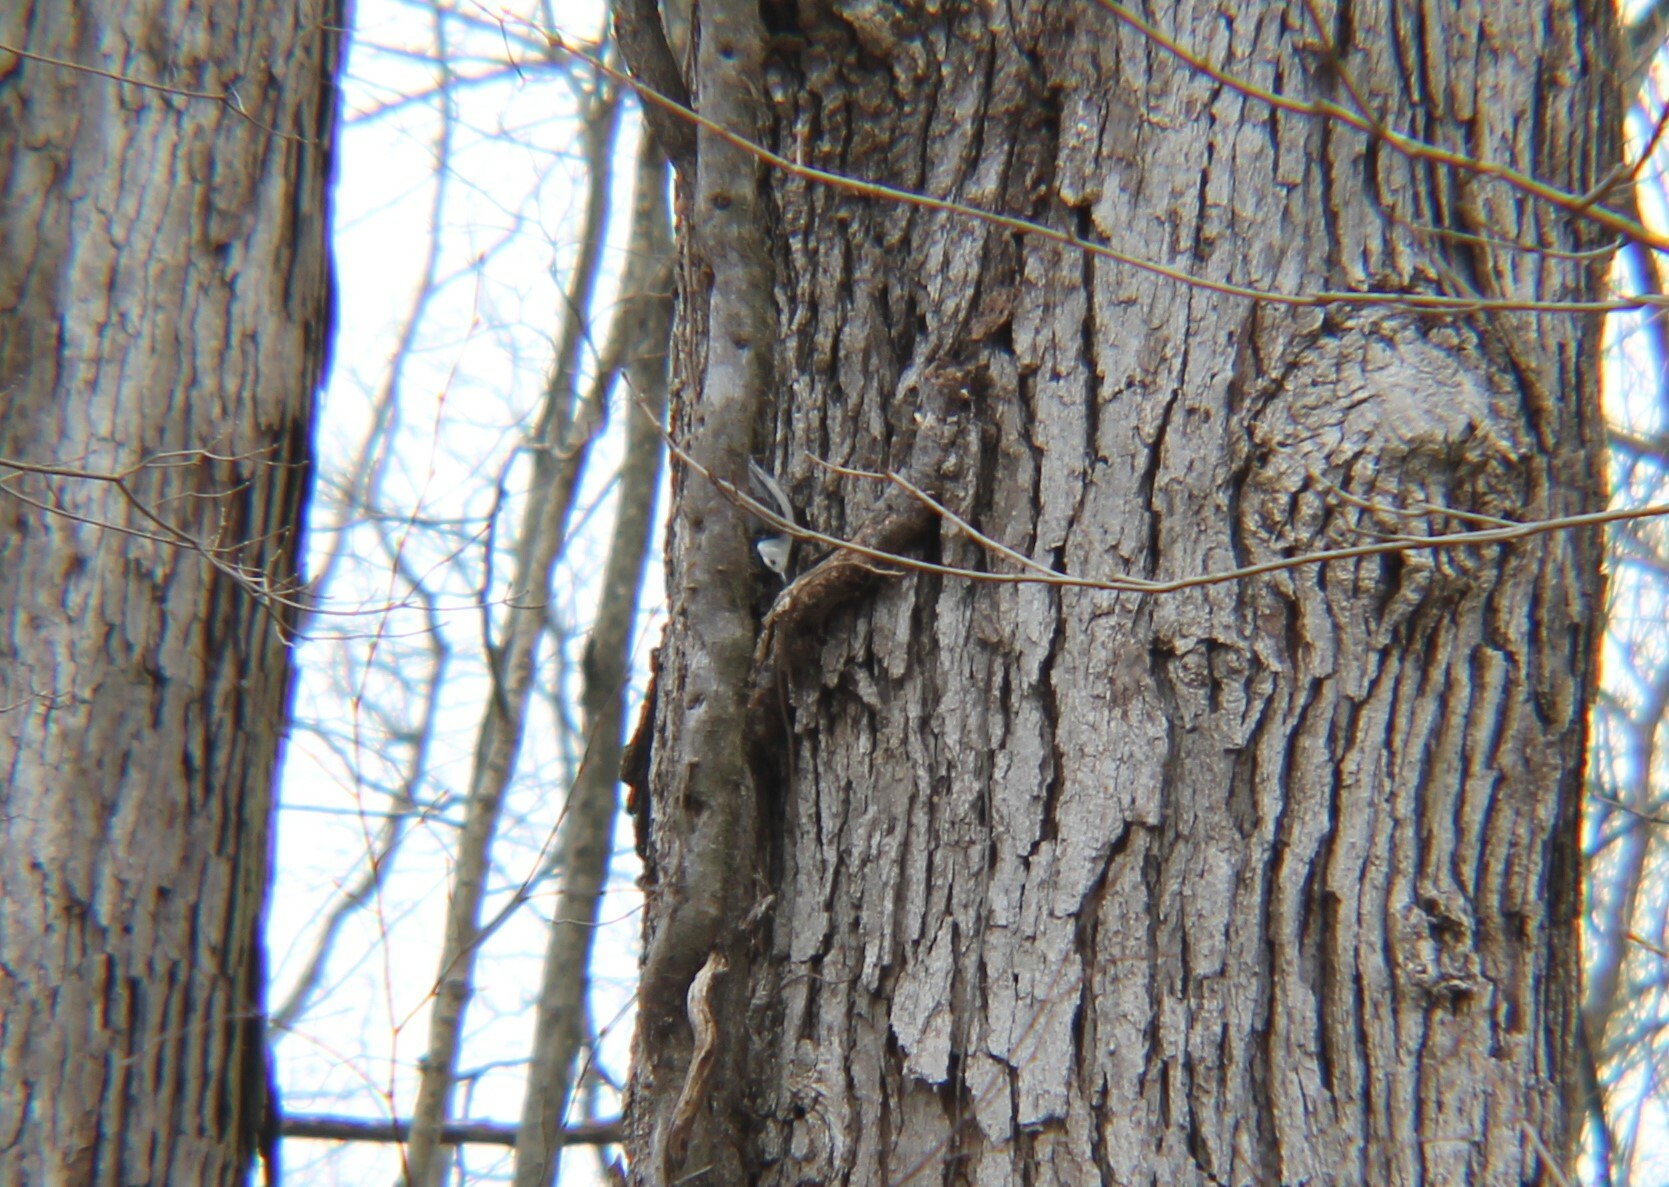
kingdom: Animalia
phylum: Chordata
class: Aves
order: Passeriformes
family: Sittidae
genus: Sitta
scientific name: Sitta carolinensis
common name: White-breasted nuthatch
